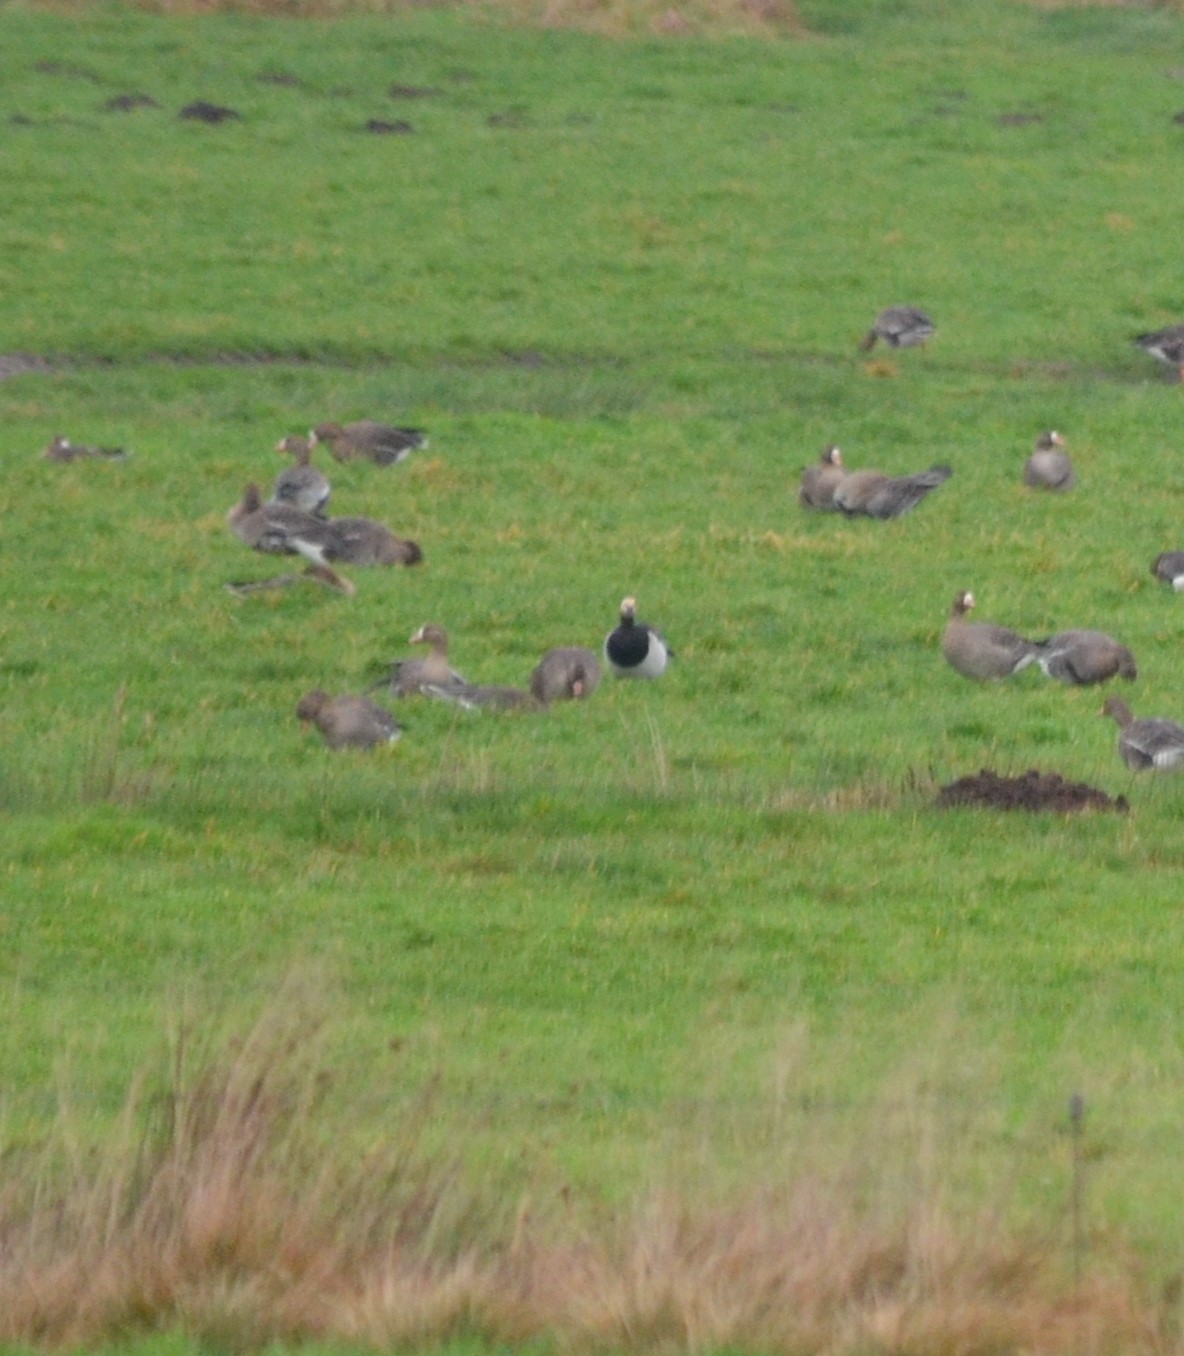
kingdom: Animalia
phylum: Chordata
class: Aves
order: Anseriformes
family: Anatidae
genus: Branta
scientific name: Branta leucopsis
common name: Barnacle goose
